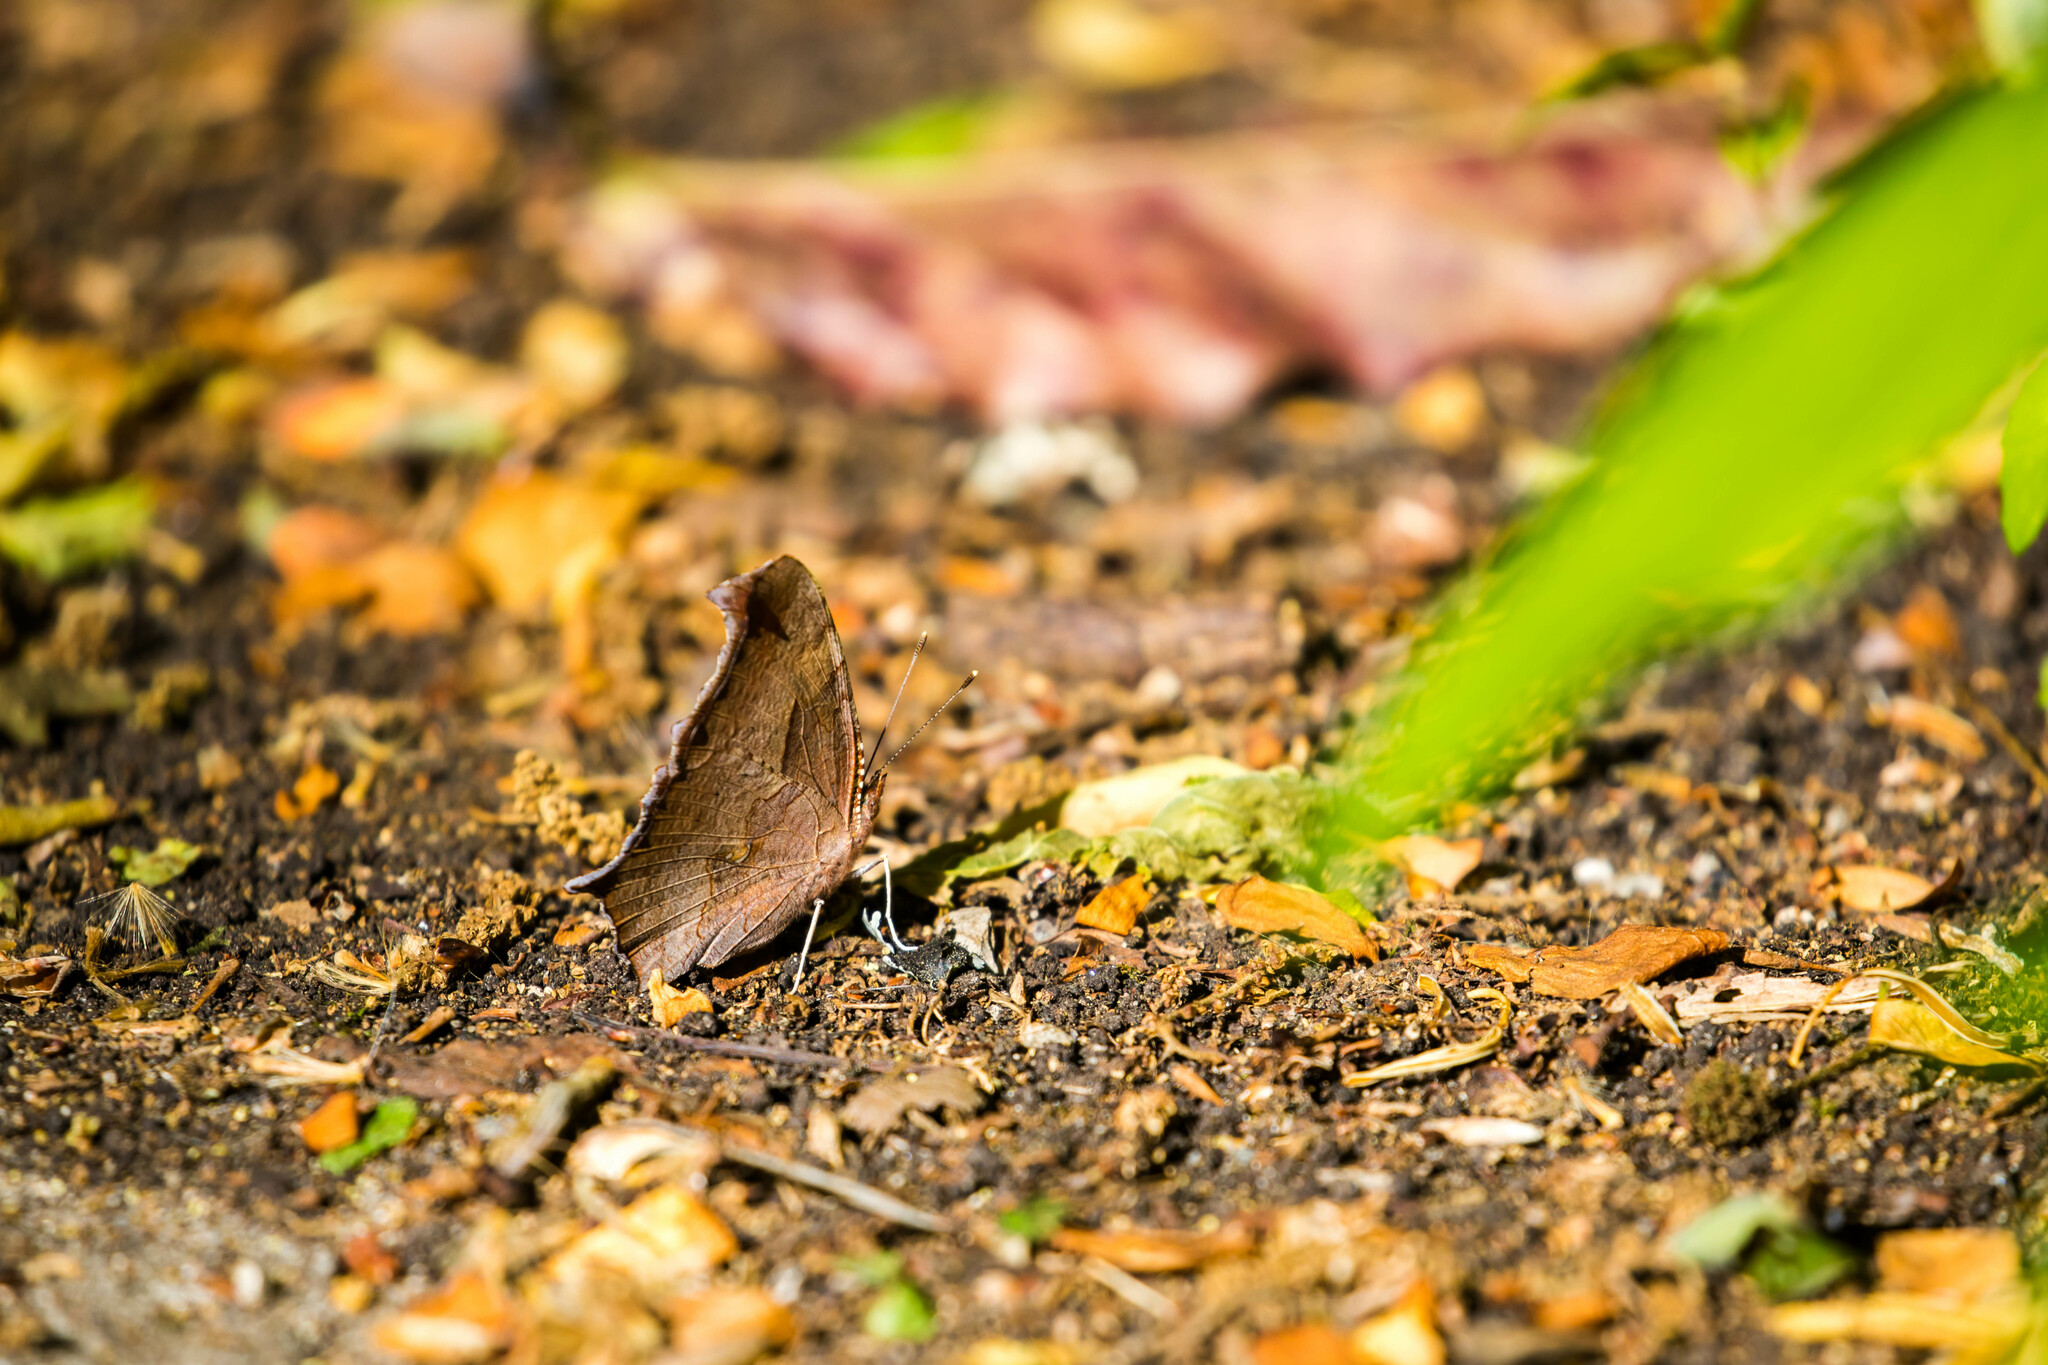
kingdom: Animalia
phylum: Arthropoda
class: Insecta
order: Lepidoptera
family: Nymphalidae
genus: Polygonia
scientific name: Polygonia interrogationis
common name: Question mark
